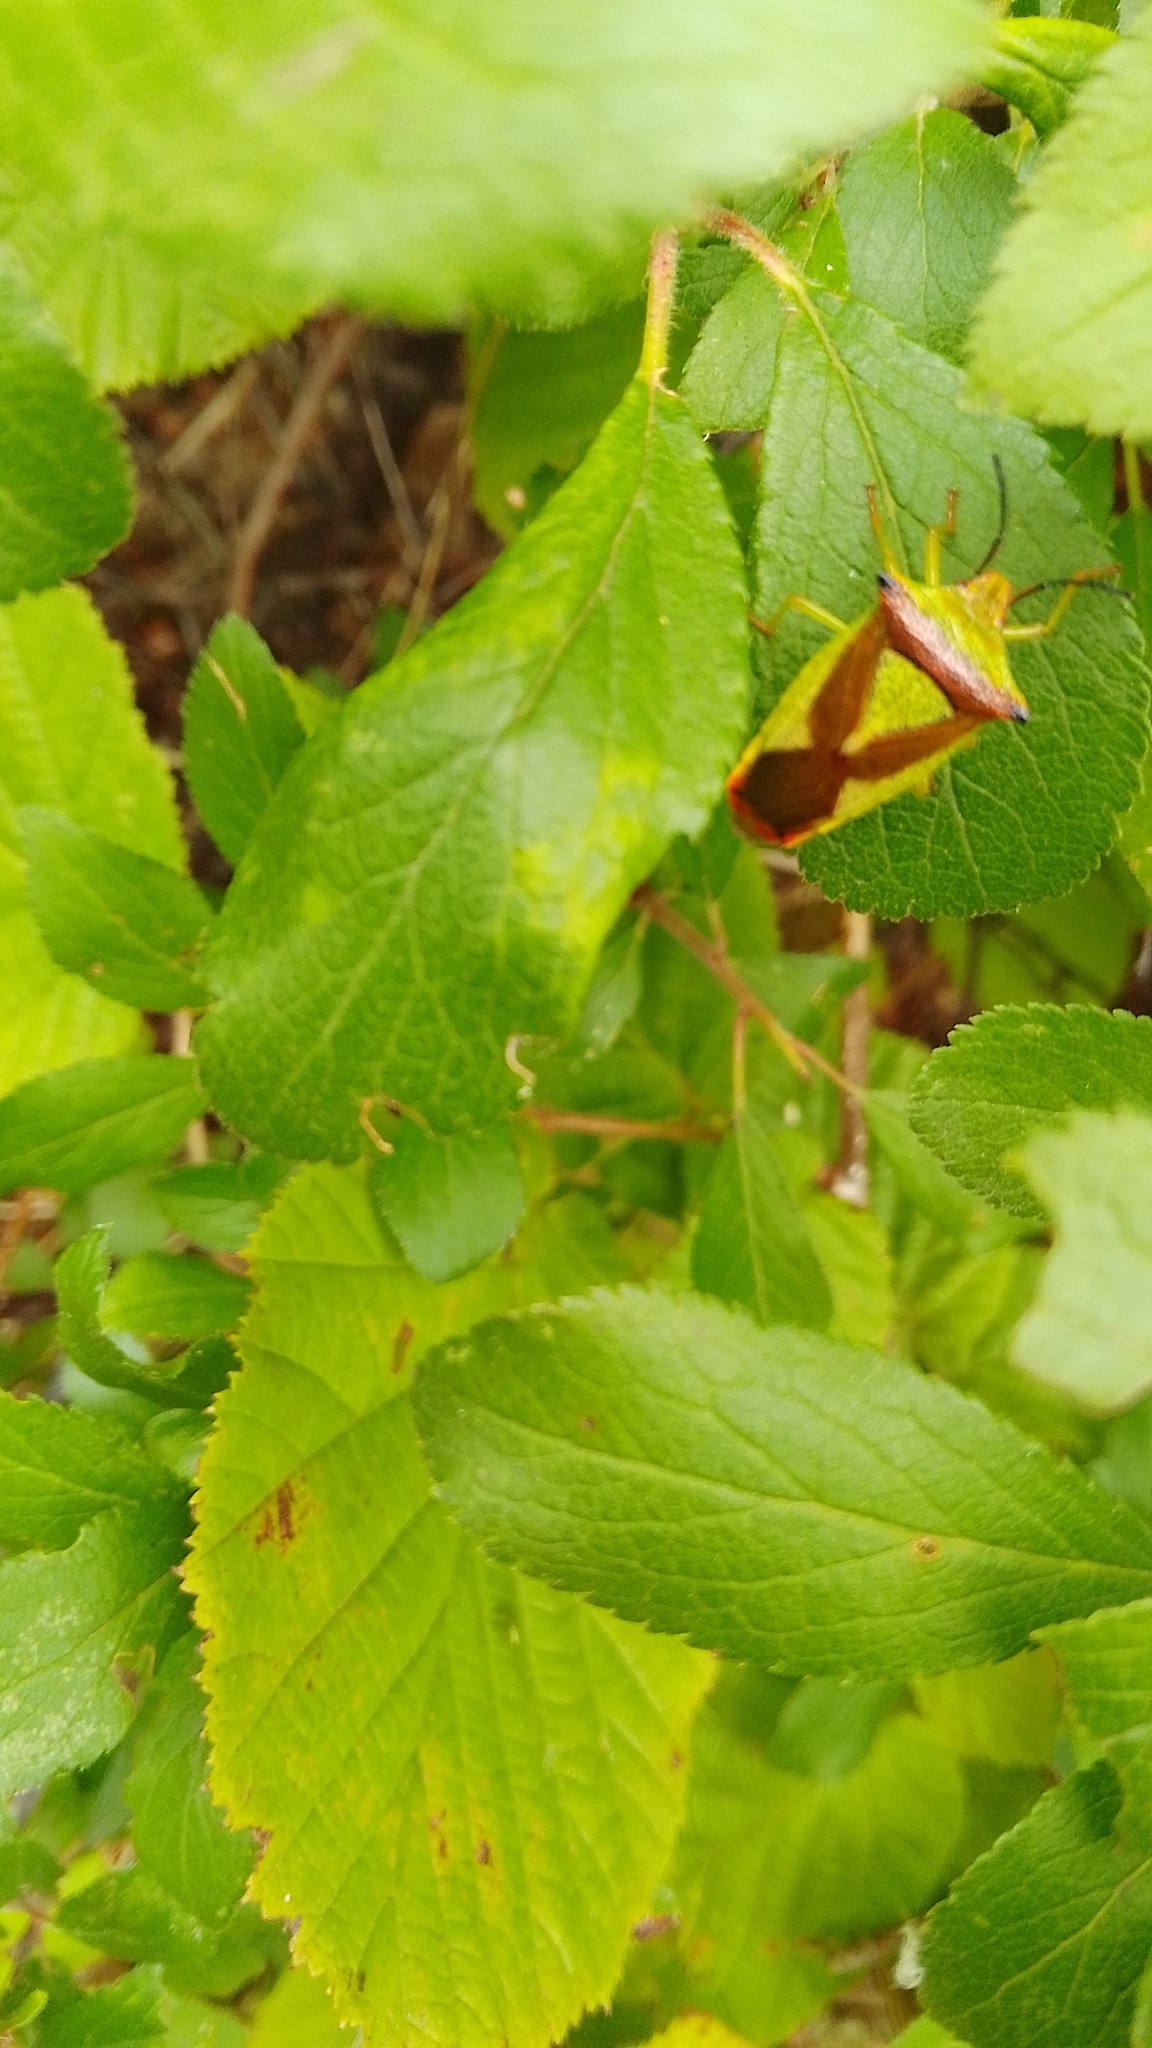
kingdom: Animalia
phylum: Arthropoda
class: Insecta
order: Hemiptera
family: Acanthosomatidae
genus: Acanthosoma
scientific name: Acanthosoma haemorrhoidale
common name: Hawthorn shieldbug
